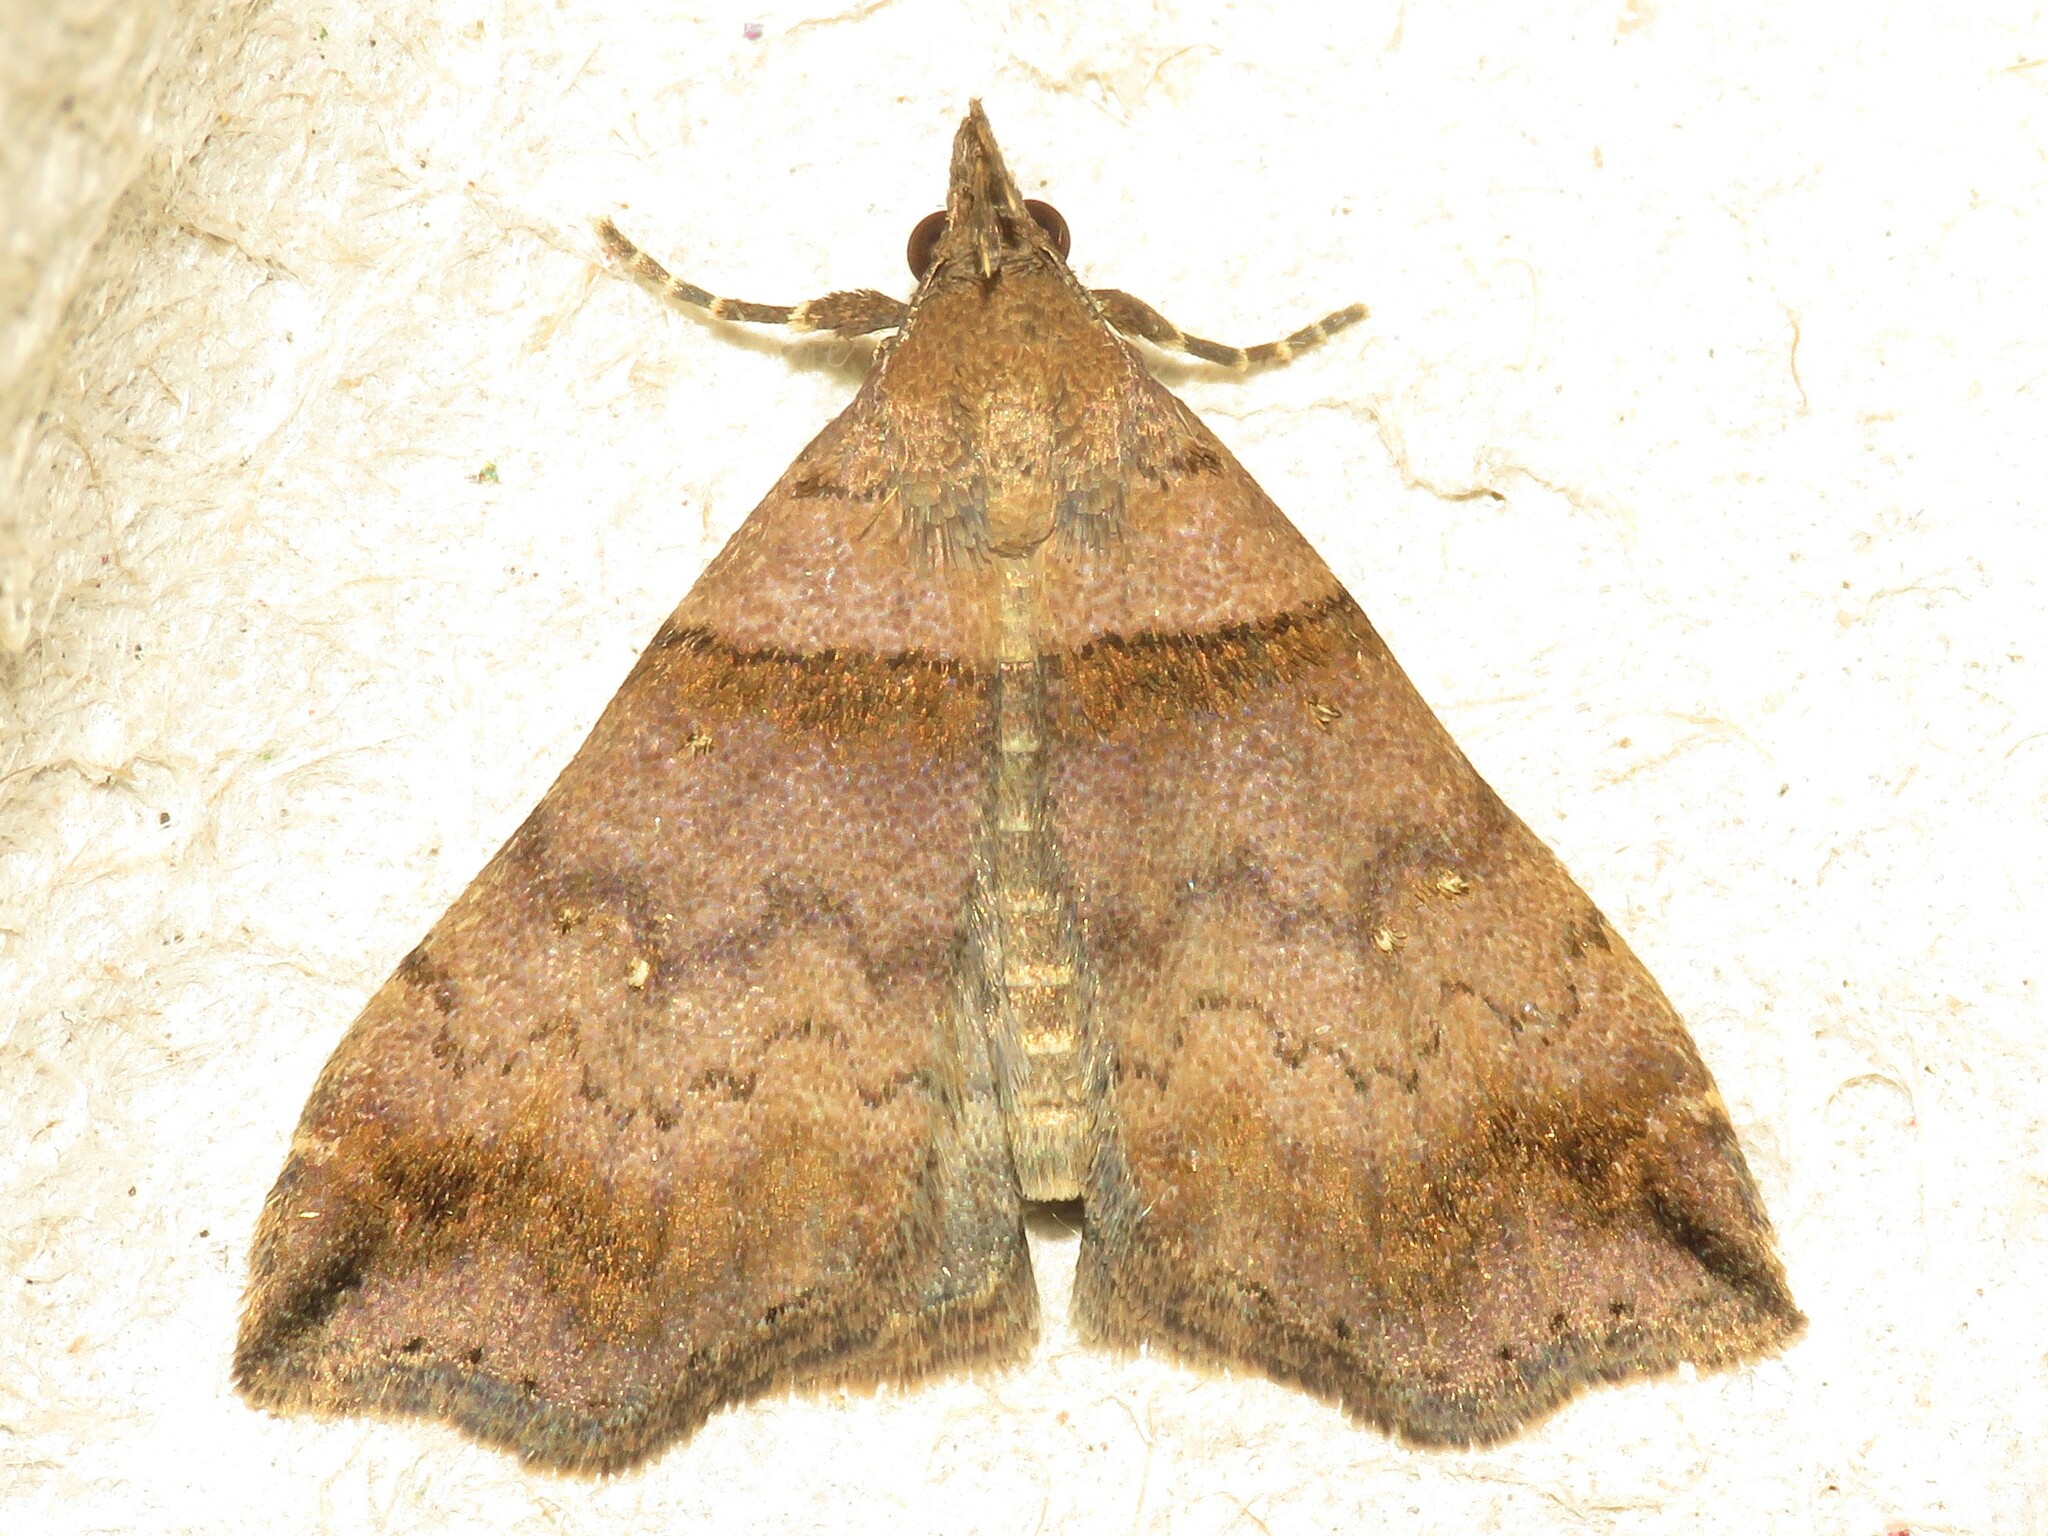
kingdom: Animalia
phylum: Arthropoda
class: Insecta
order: Lepidoptera
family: Erebidae
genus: Lascoria
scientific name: Lascoria ambigualis
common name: Ambiguous moth
